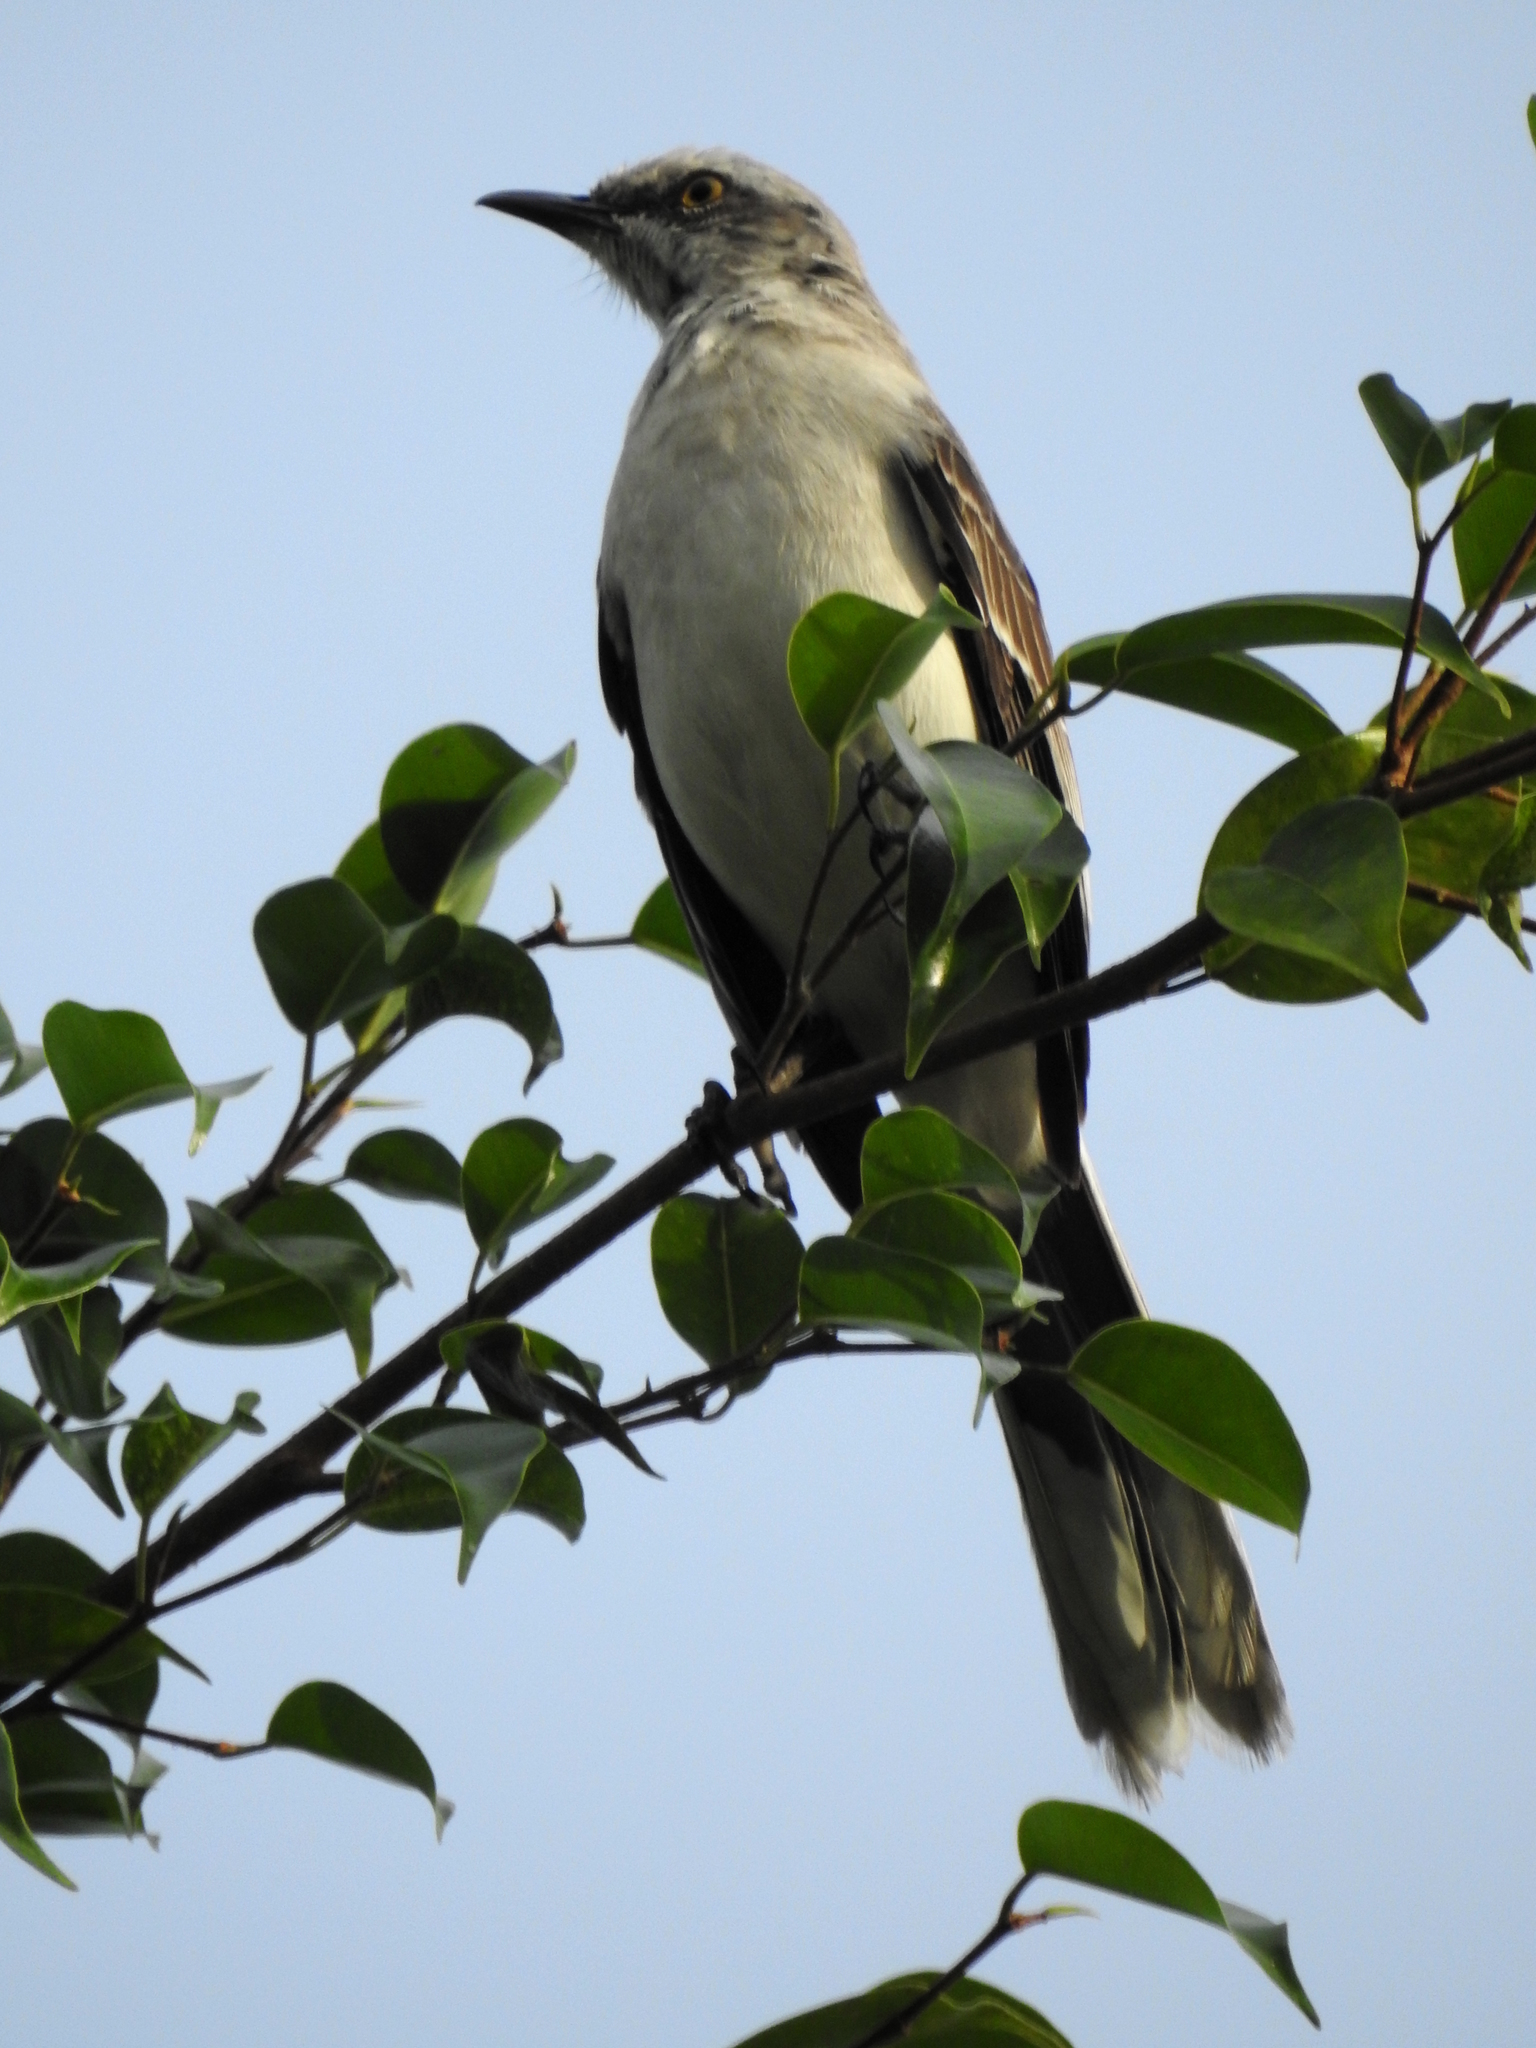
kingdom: Animalia
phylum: Chordata
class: Aves
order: Passeriformes
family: Mimidae
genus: Mimus
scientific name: Mimus gilvus
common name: Tropical mockingbird
